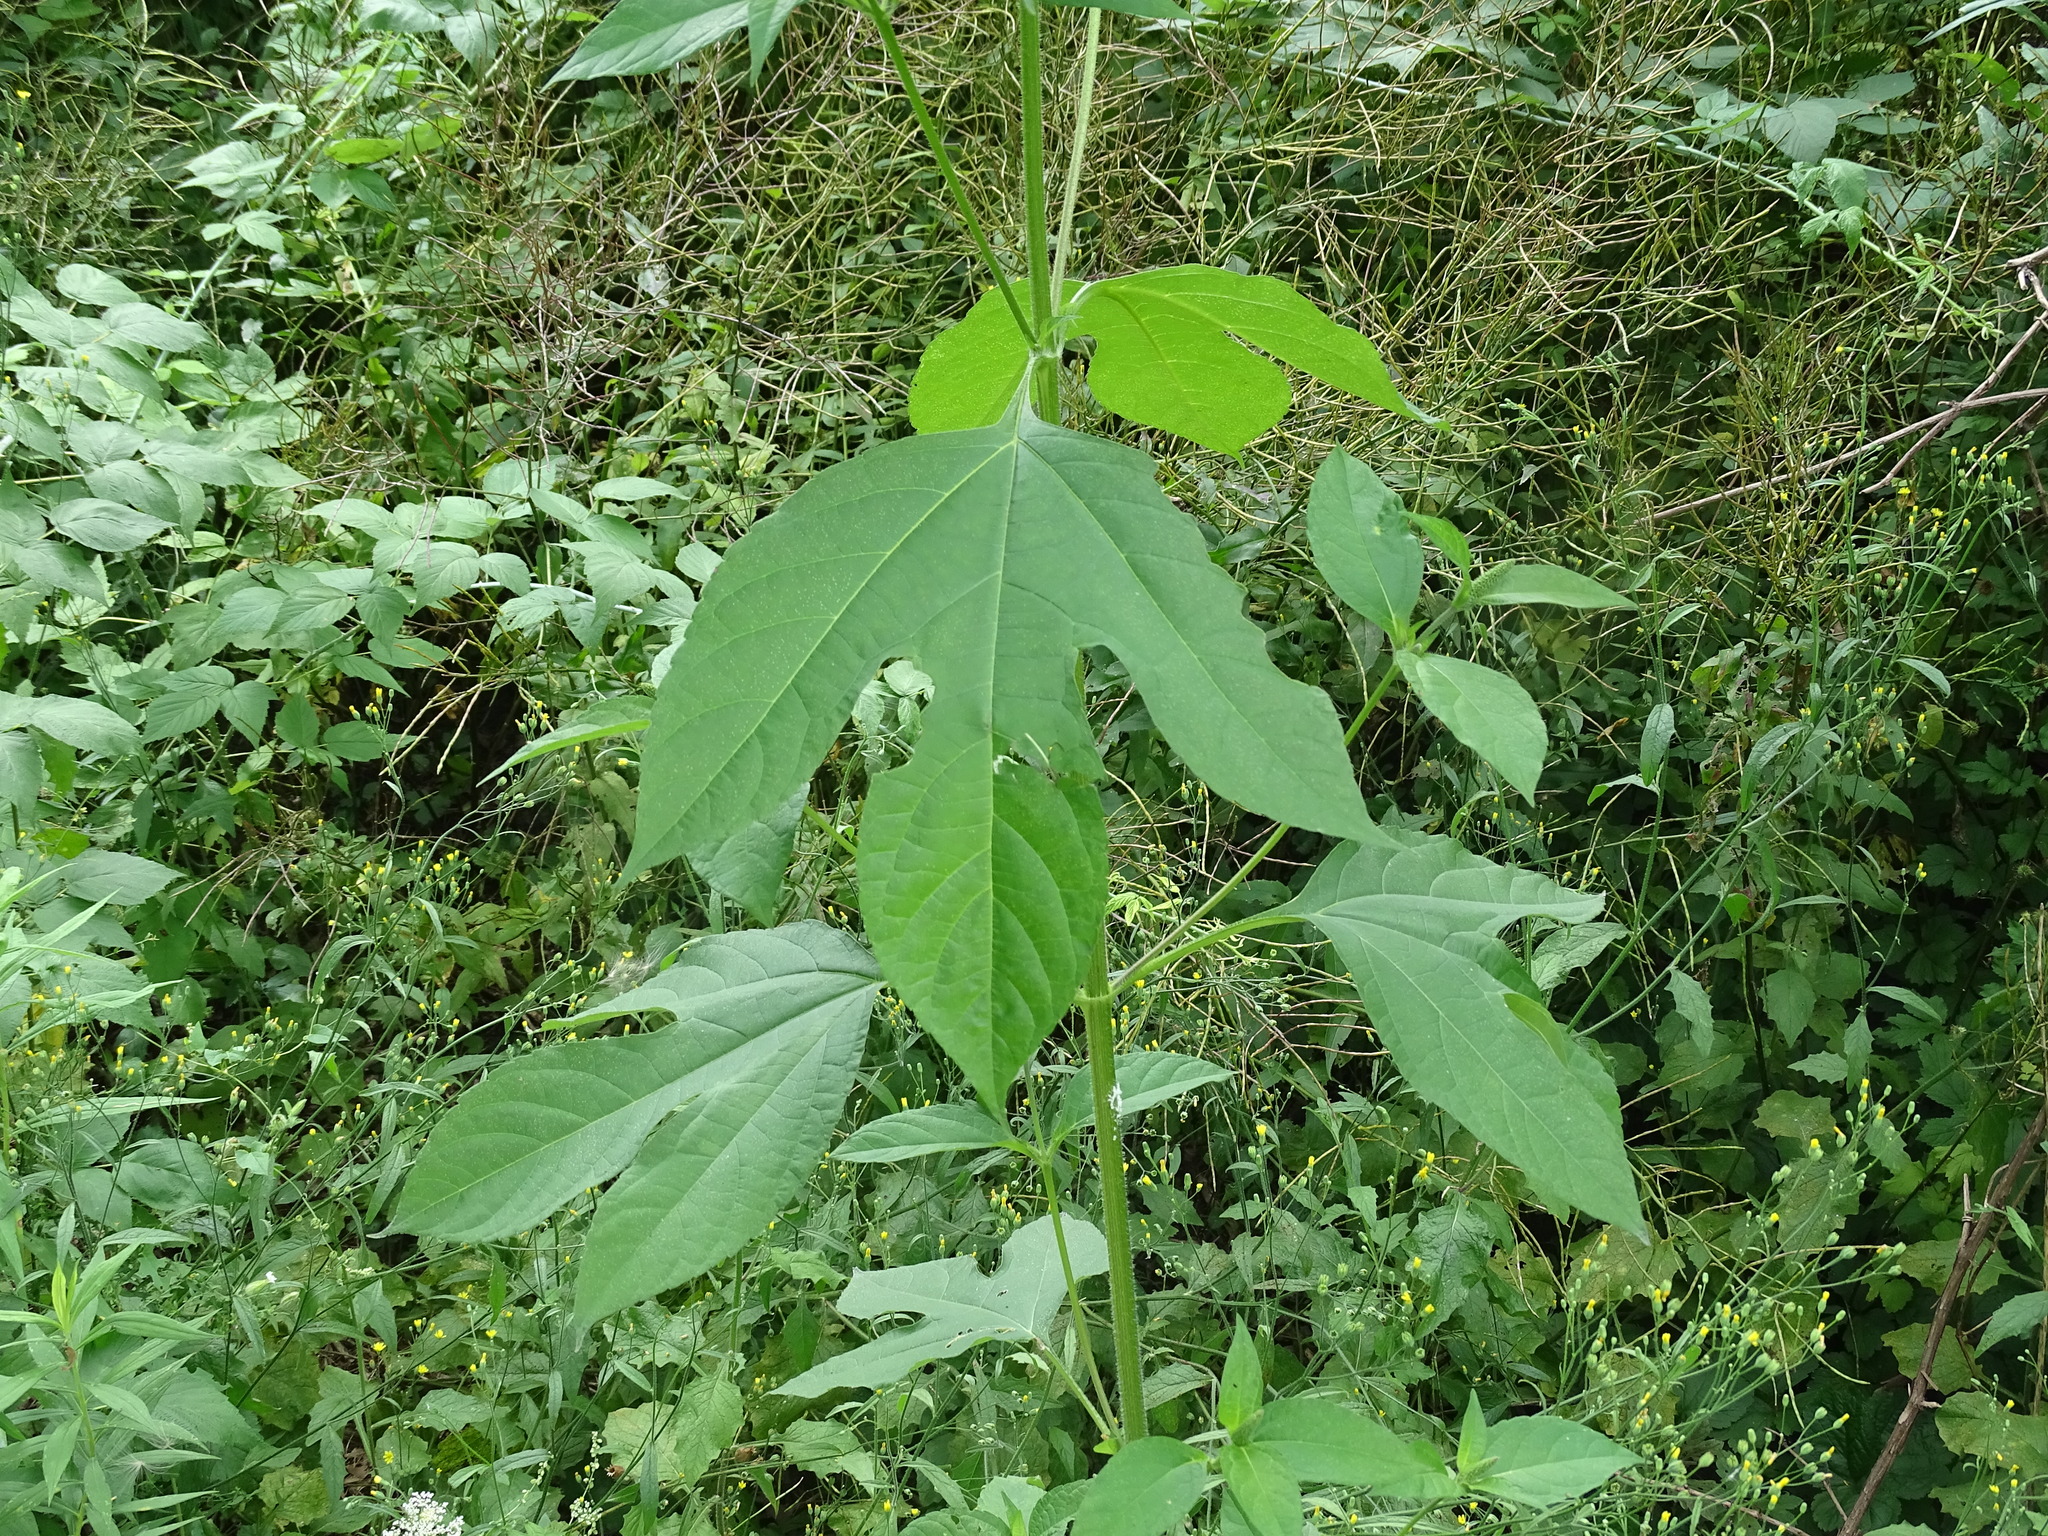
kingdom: Plantae
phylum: Tracheophyta
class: Magnoliopsida
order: Asterales
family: Asteraceae
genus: Ambrosia
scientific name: Ambrosia trifida
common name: Giant ragweed
